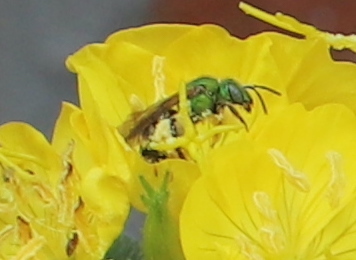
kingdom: Animalia
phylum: Arthropoda
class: Insecta
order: Hymenoptera
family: Halictidae
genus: Agapostemon
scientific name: Agapostemon virescens
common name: Bicolored striped sweat bee
